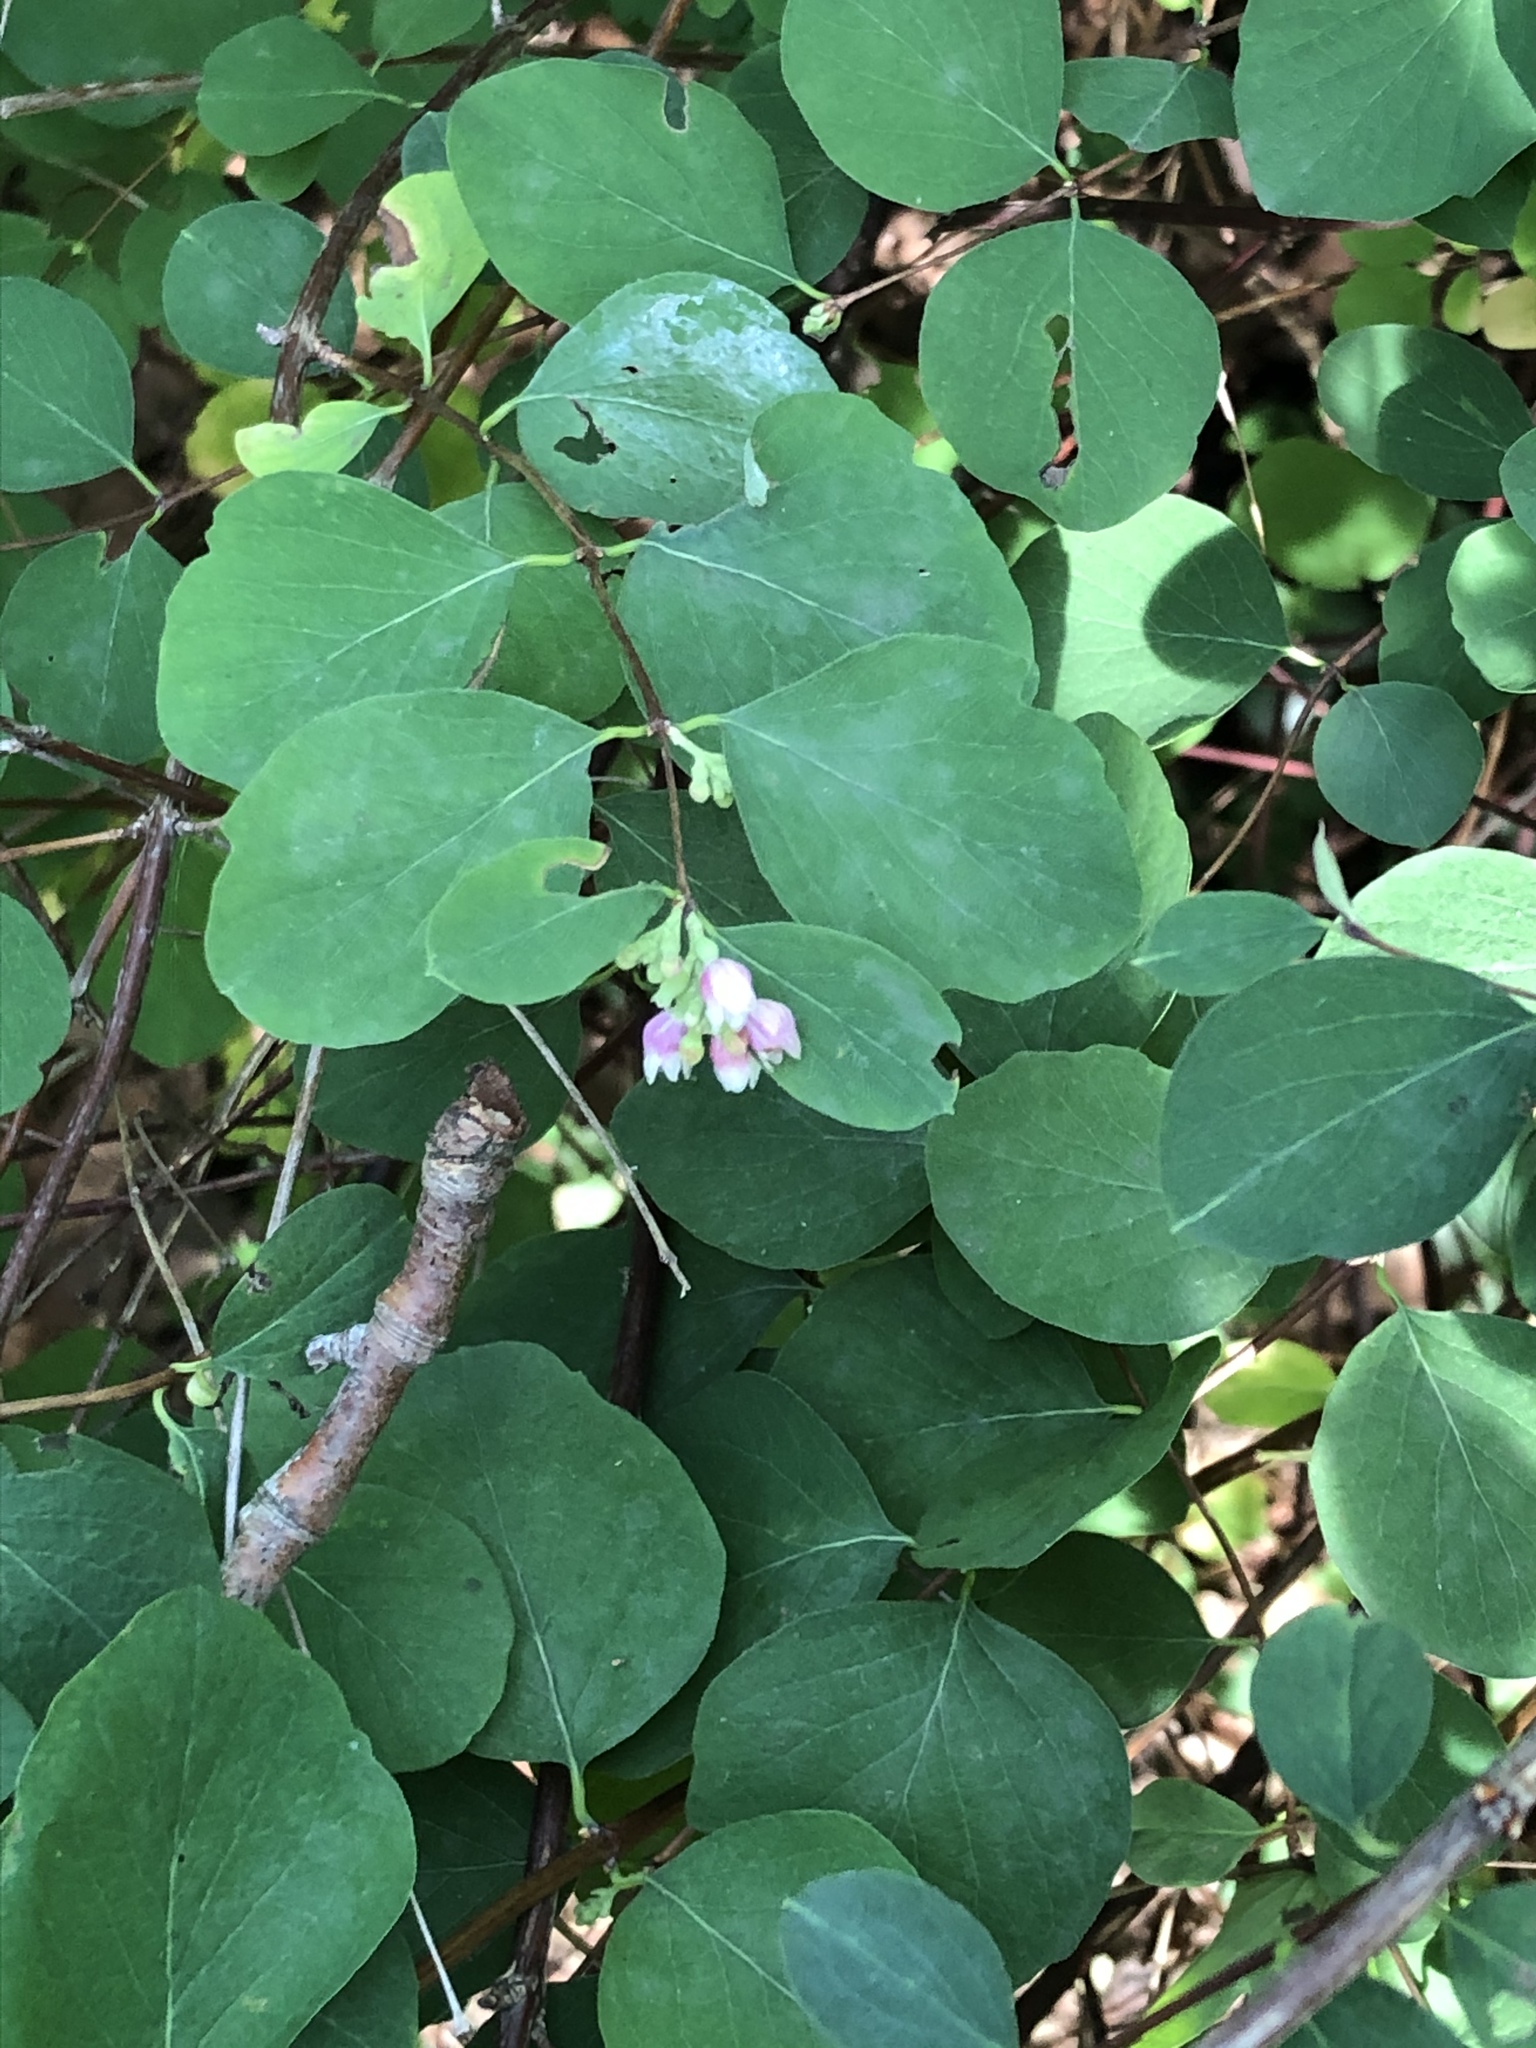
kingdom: Plantae
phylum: Tracheophyta
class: Magnoliopsida
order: Dipsacales
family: Caprifoliaceae
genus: Symphoricarpos
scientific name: Symphoricarpos albus
